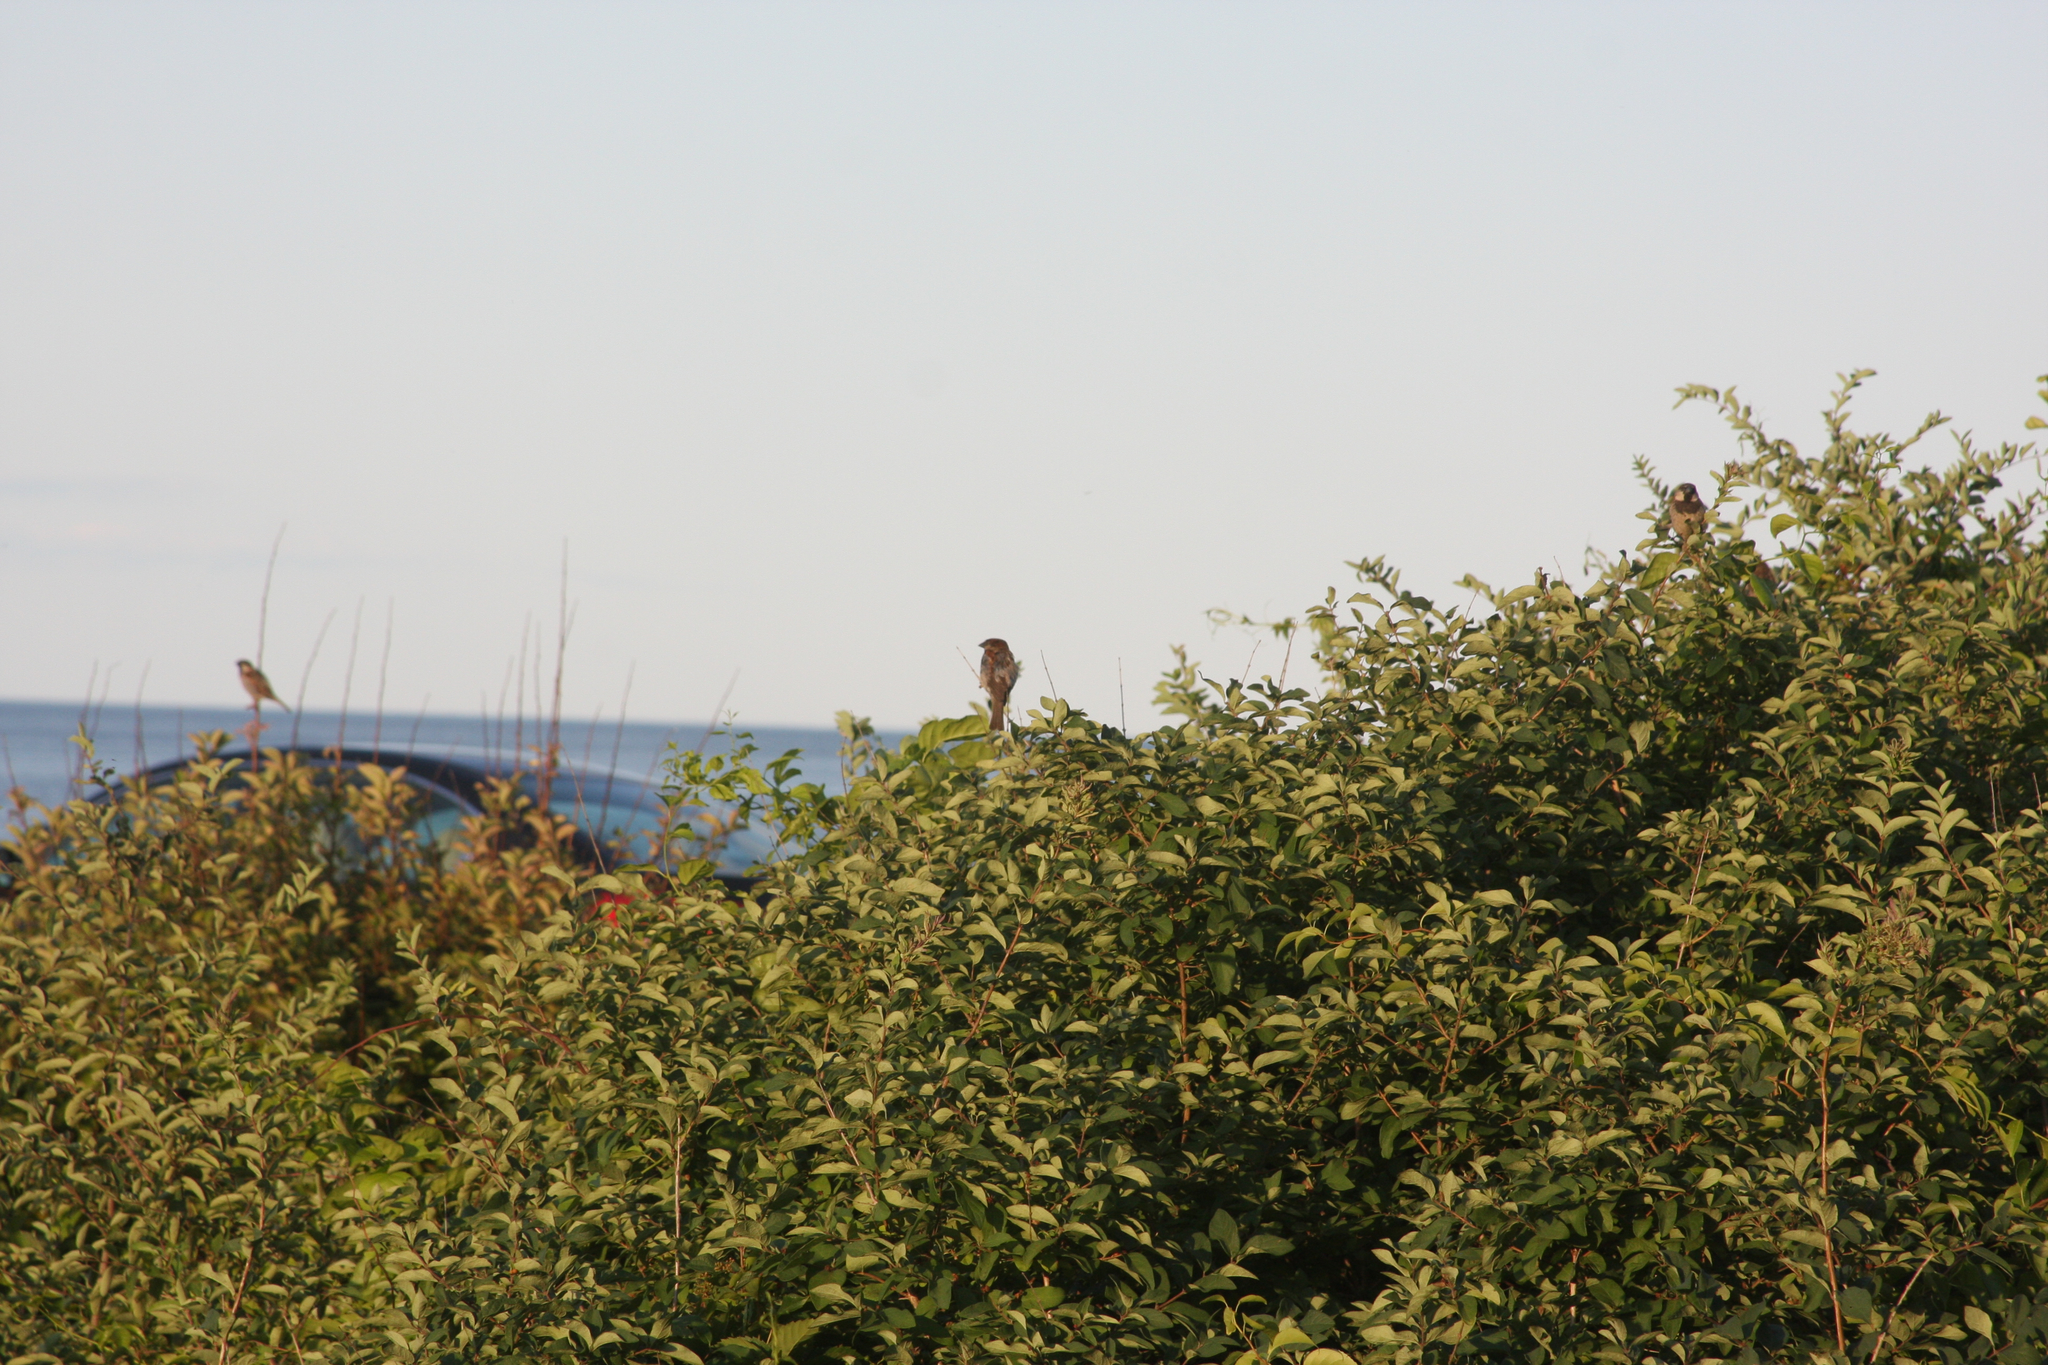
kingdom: Animalia
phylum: Chordata
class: Aves
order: Passeriformes
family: Passeridae
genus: Passer
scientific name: Passer domesticus
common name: House sparrow
